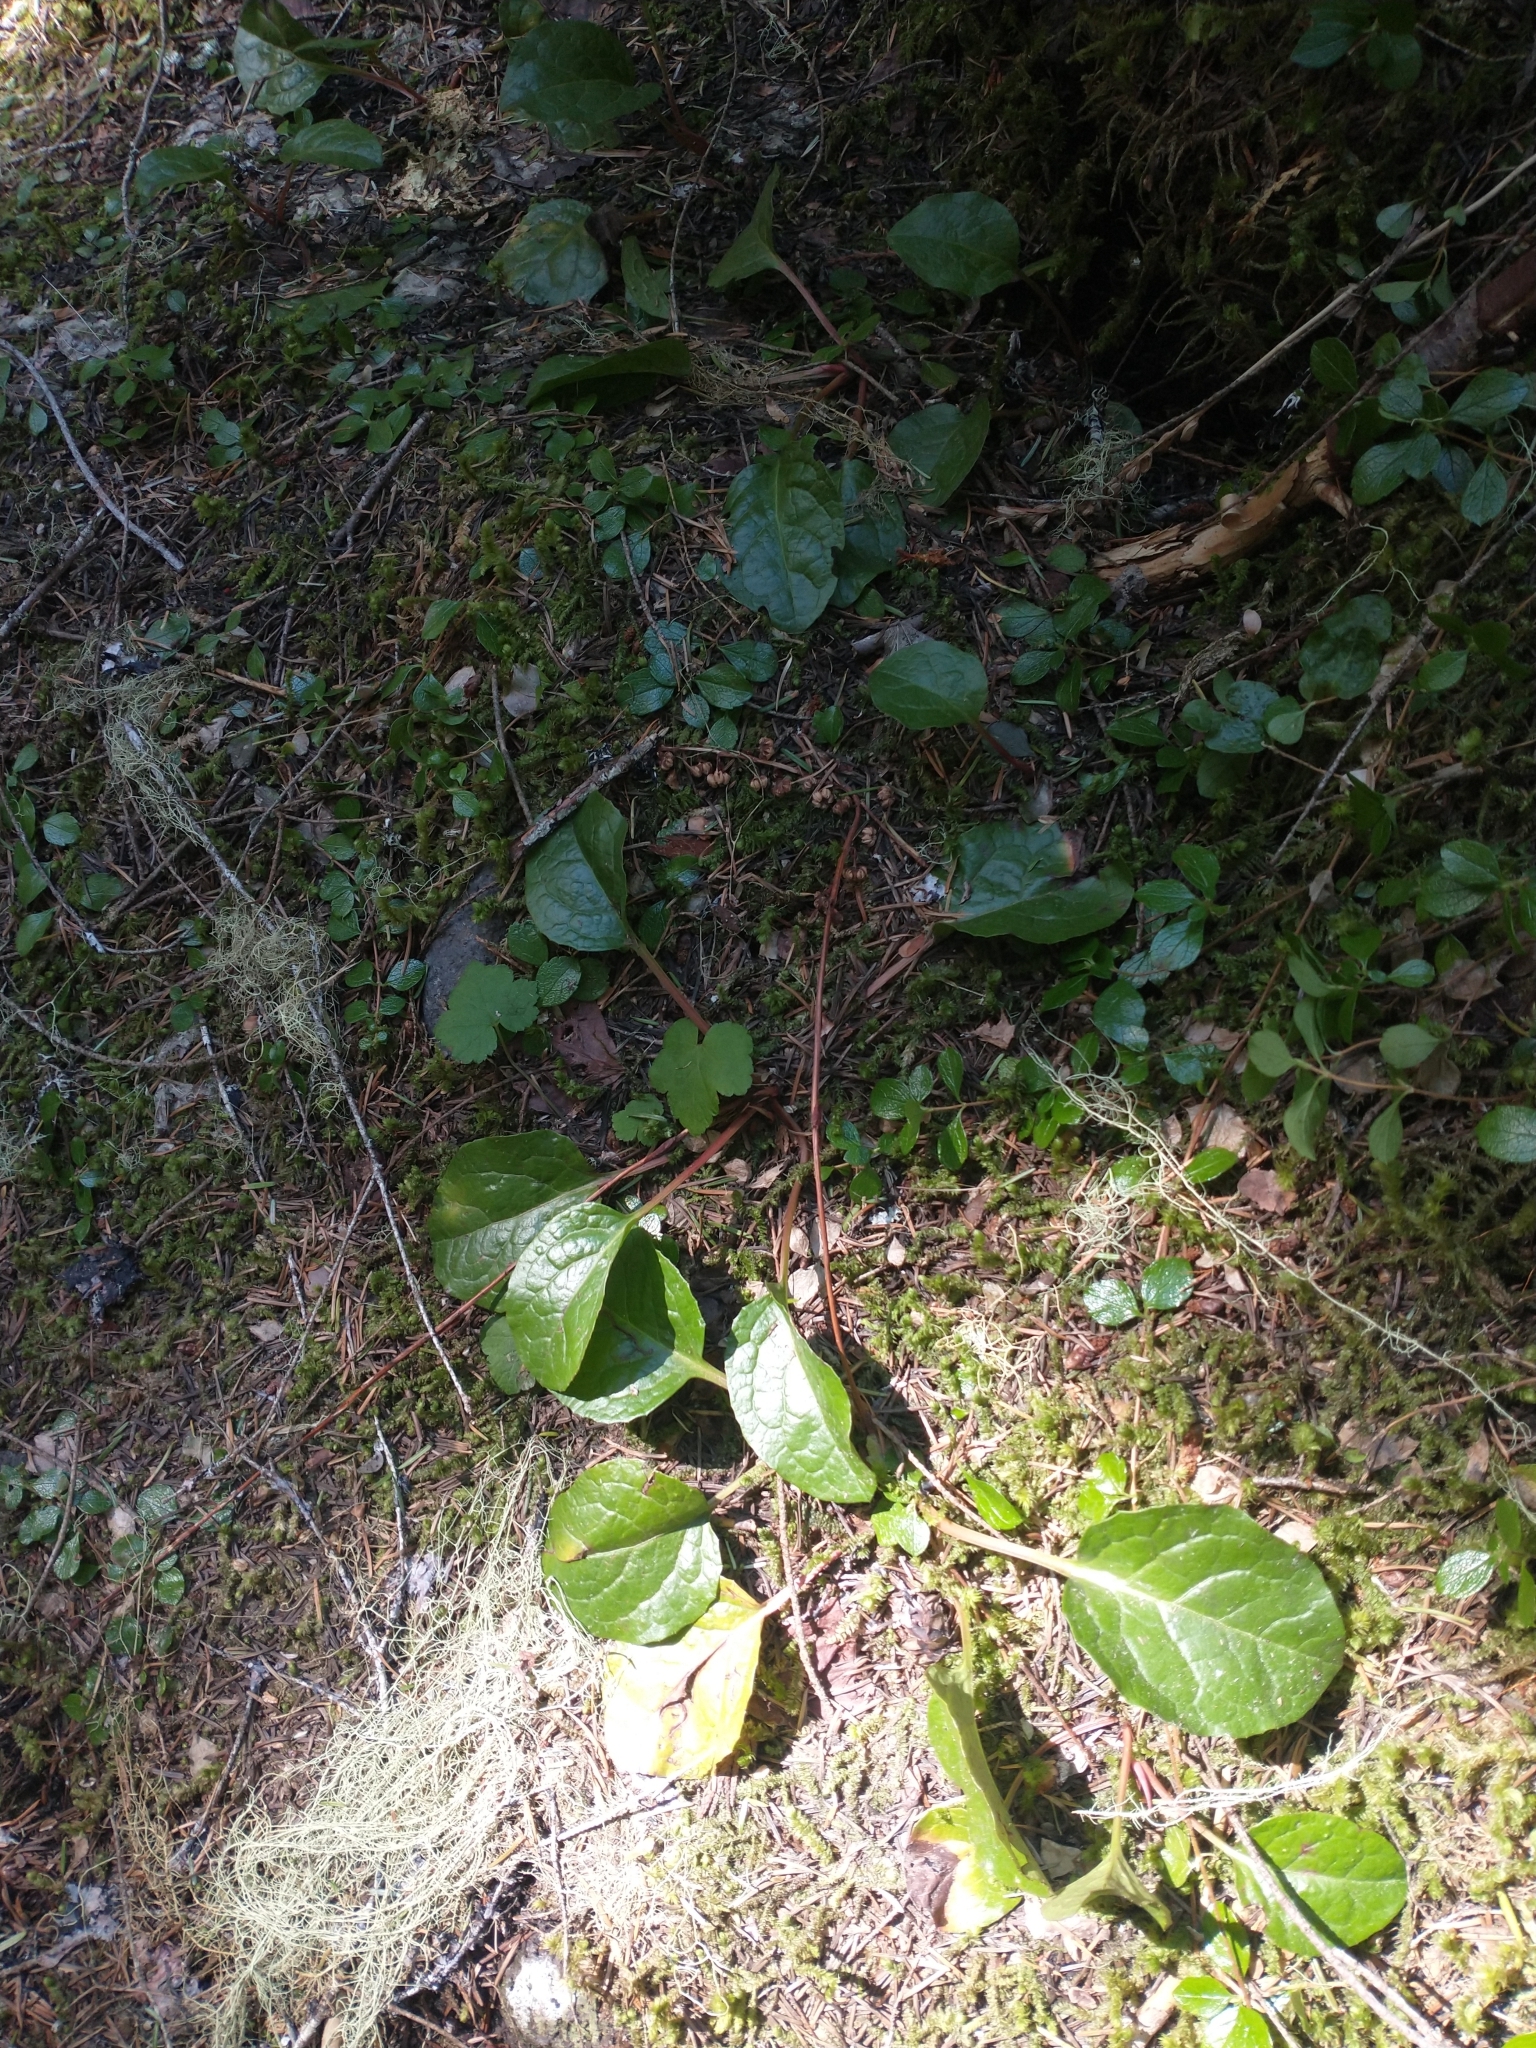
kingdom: Plantae
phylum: Tracheophyta
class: Magnoliopsida
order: Ericales
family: Ericaceae
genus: Pyrola
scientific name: Pyrola asarifolia
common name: Bog wintergreen
